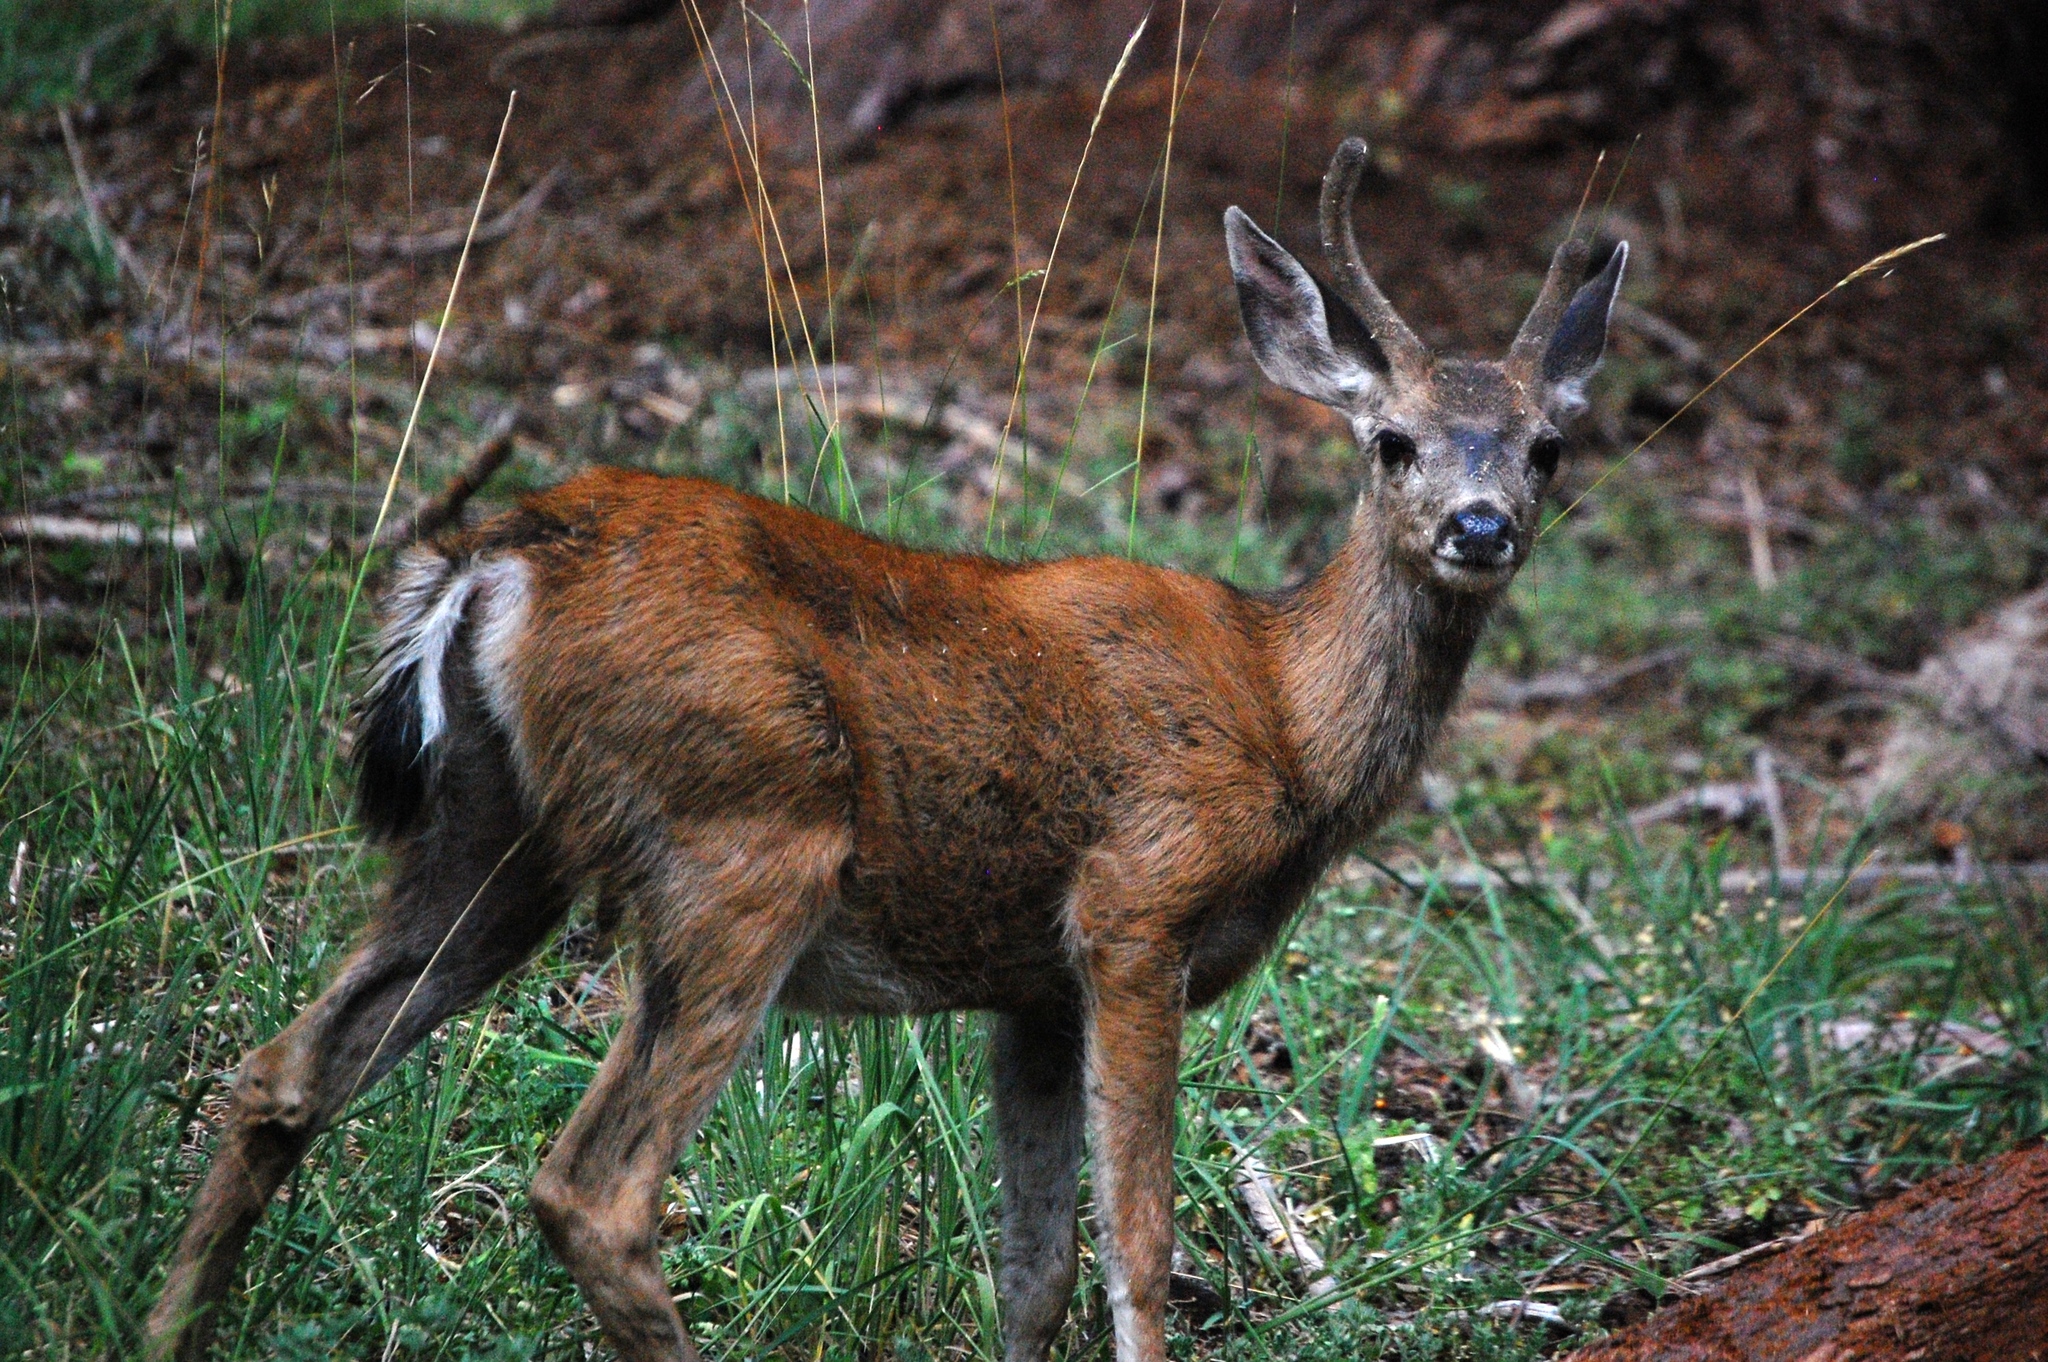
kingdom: Animalia
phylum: Chordata
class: Mammalia
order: Artiodactyla
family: Cervidae
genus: Odocoileus
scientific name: Odocoileus hemionus
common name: Mule deer
